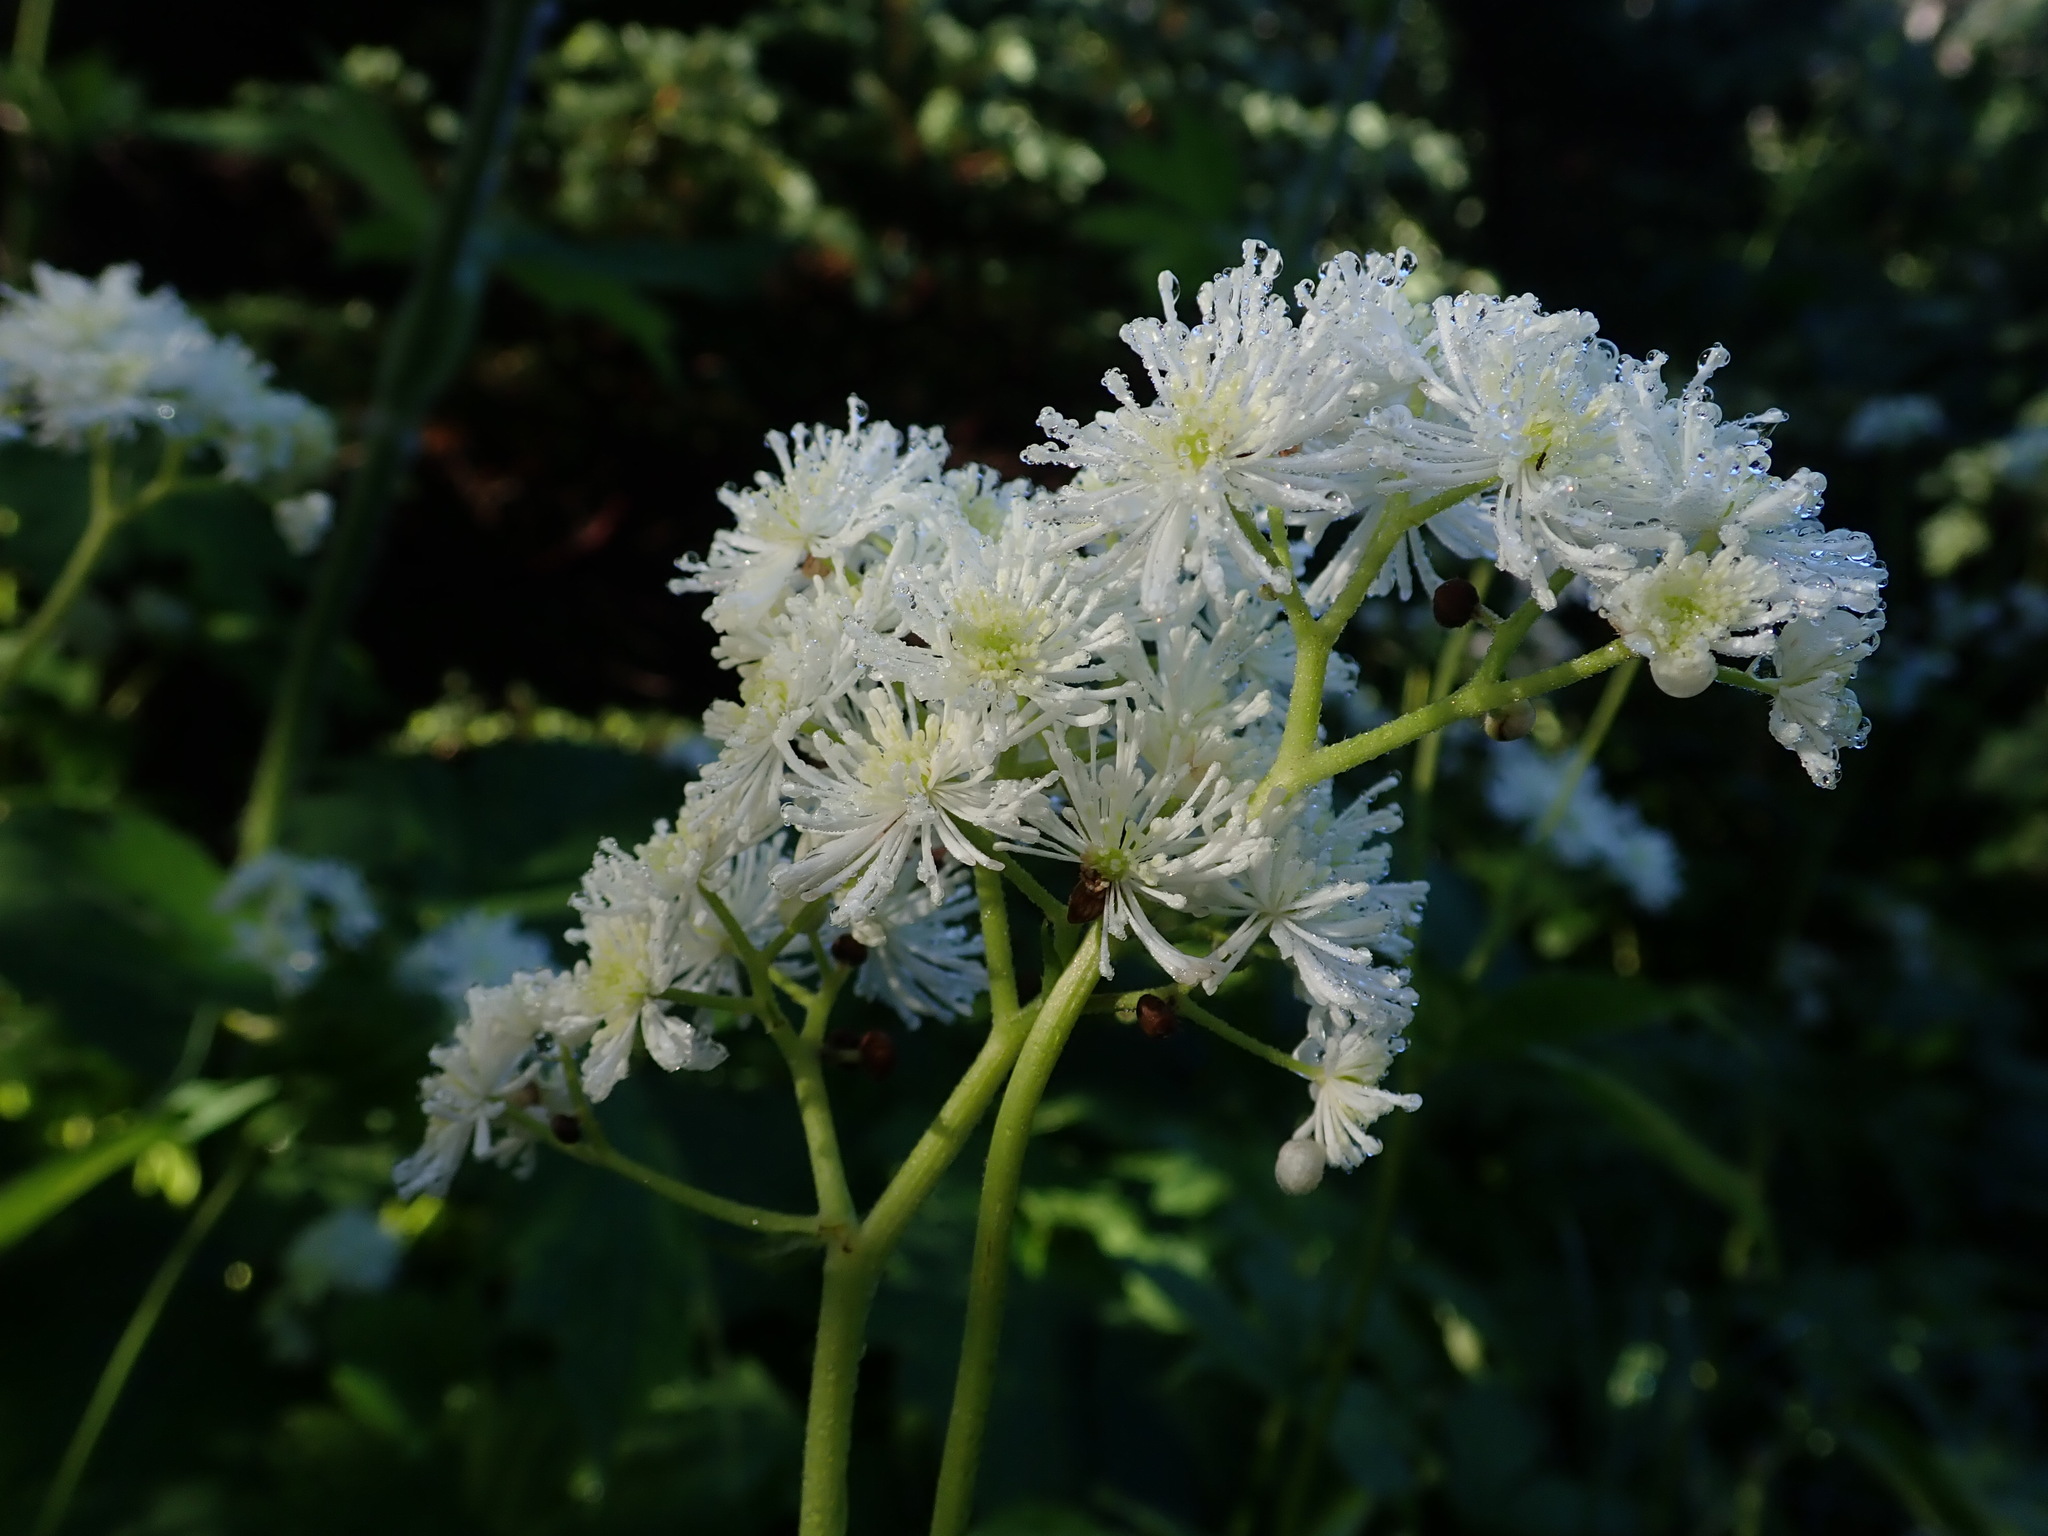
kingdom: Plantae
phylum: Tracheophyta
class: Magnoliopsida
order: Ranunculales
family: Ranunculaceae
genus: Trautvetteria
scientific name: Trautvetteria carolinensis
